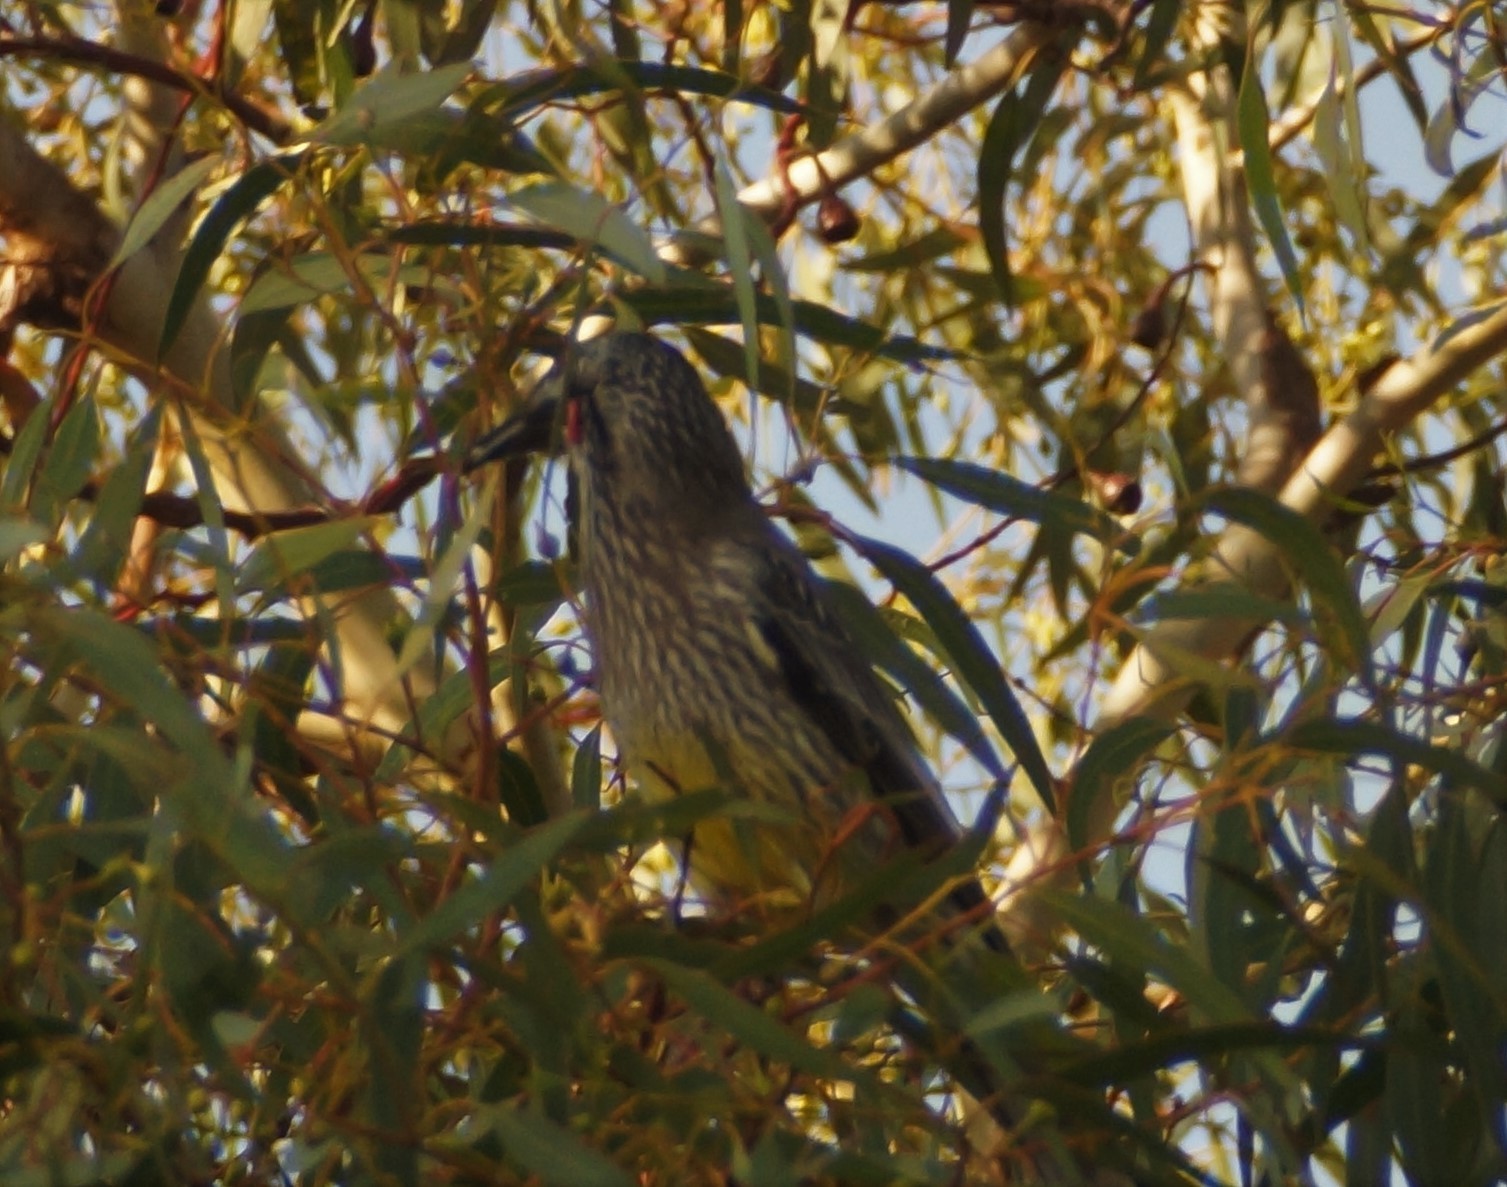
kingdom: Animalia
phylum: Chordata
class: Aves
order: Passeriformes
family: Meliphagidae
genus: Anthochaera
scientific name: Anthochaera carunculata
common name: Red wattlebird
